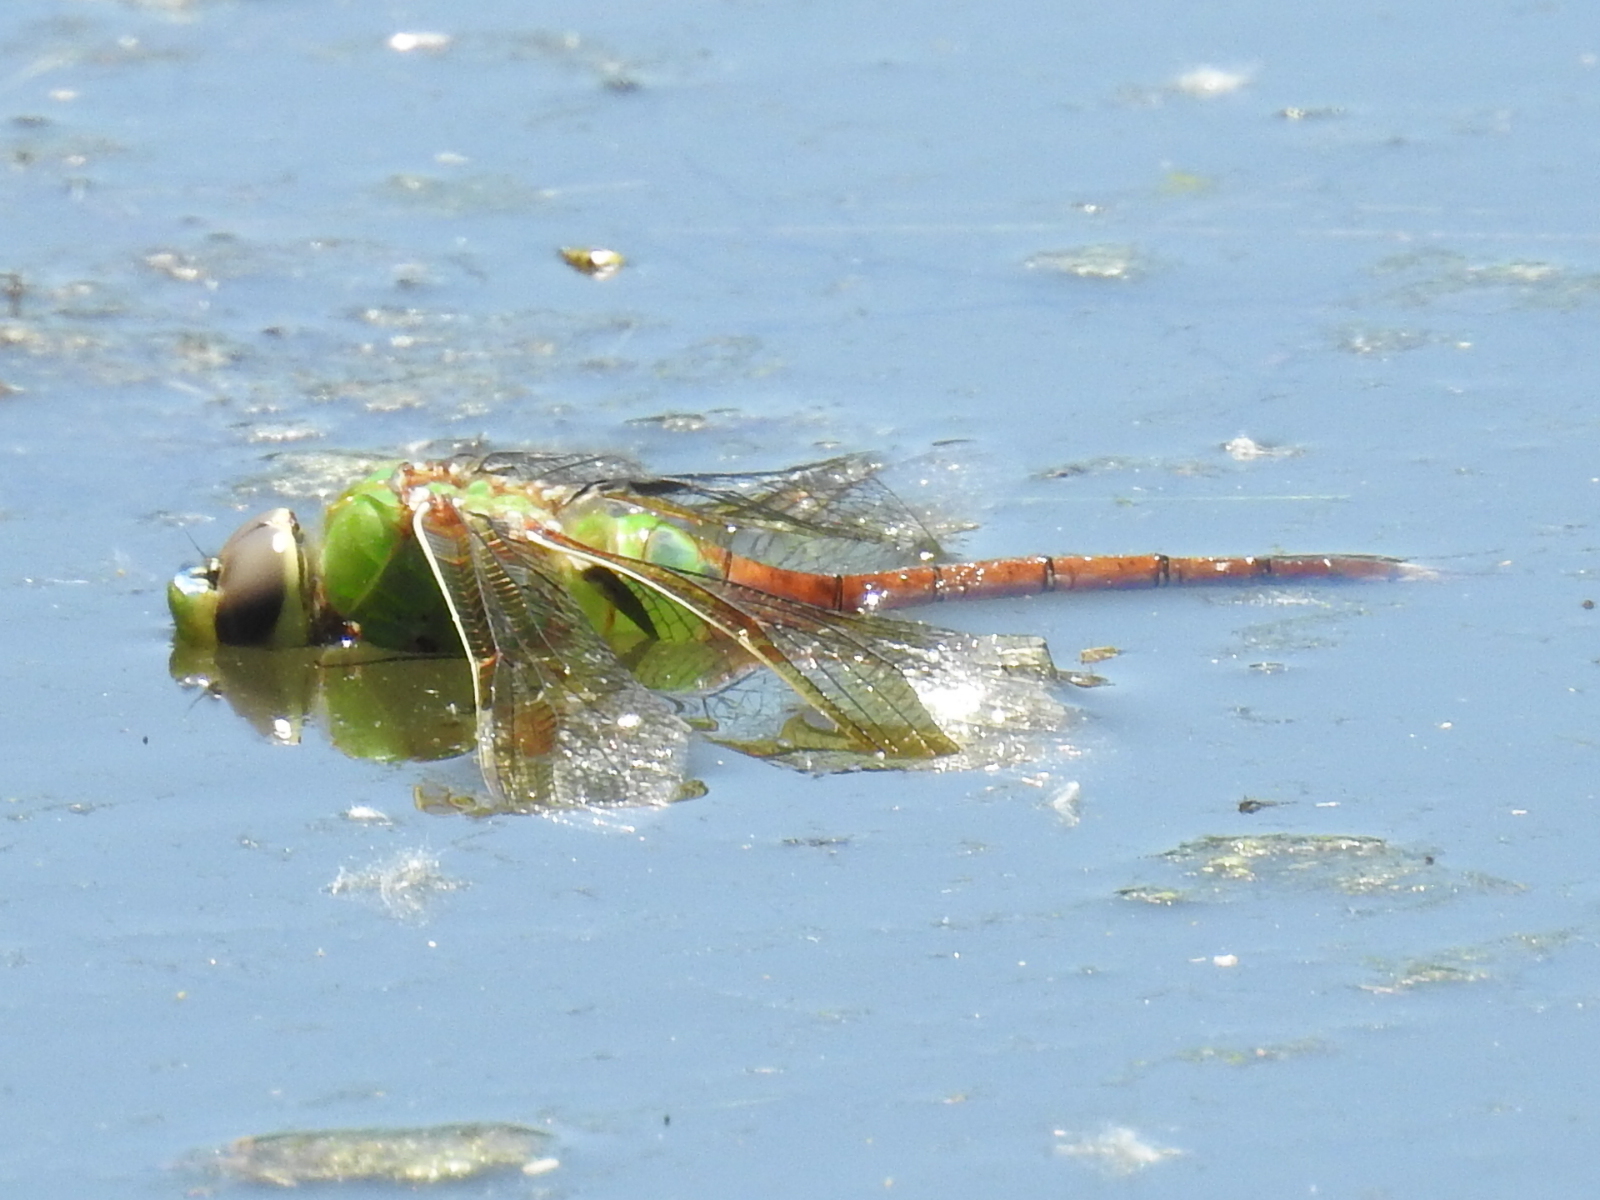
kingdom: Animalia
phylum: Arthropoda
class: Insecta
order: Odonata
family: Aeshnidae
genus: Anax
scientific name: Anax longipes
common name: Comet darner
